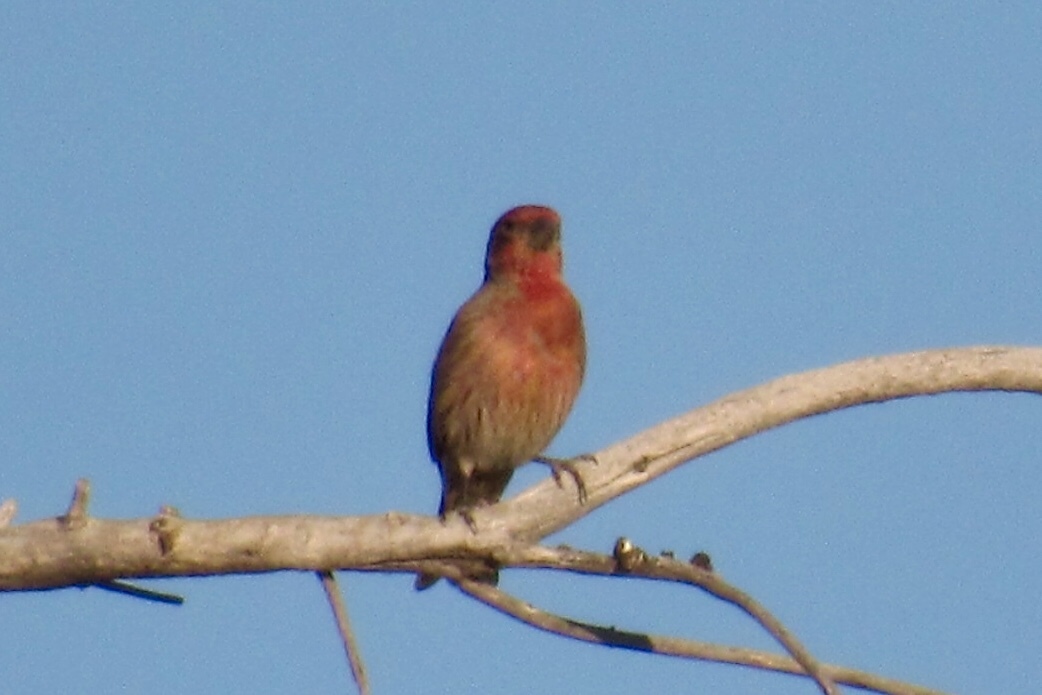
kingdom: Animalia
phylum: Chordata
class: Aves
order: Passeriformes
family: Fringillidae
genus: Haemorhous
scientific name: Haemorhous mexicanus
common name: House finch
